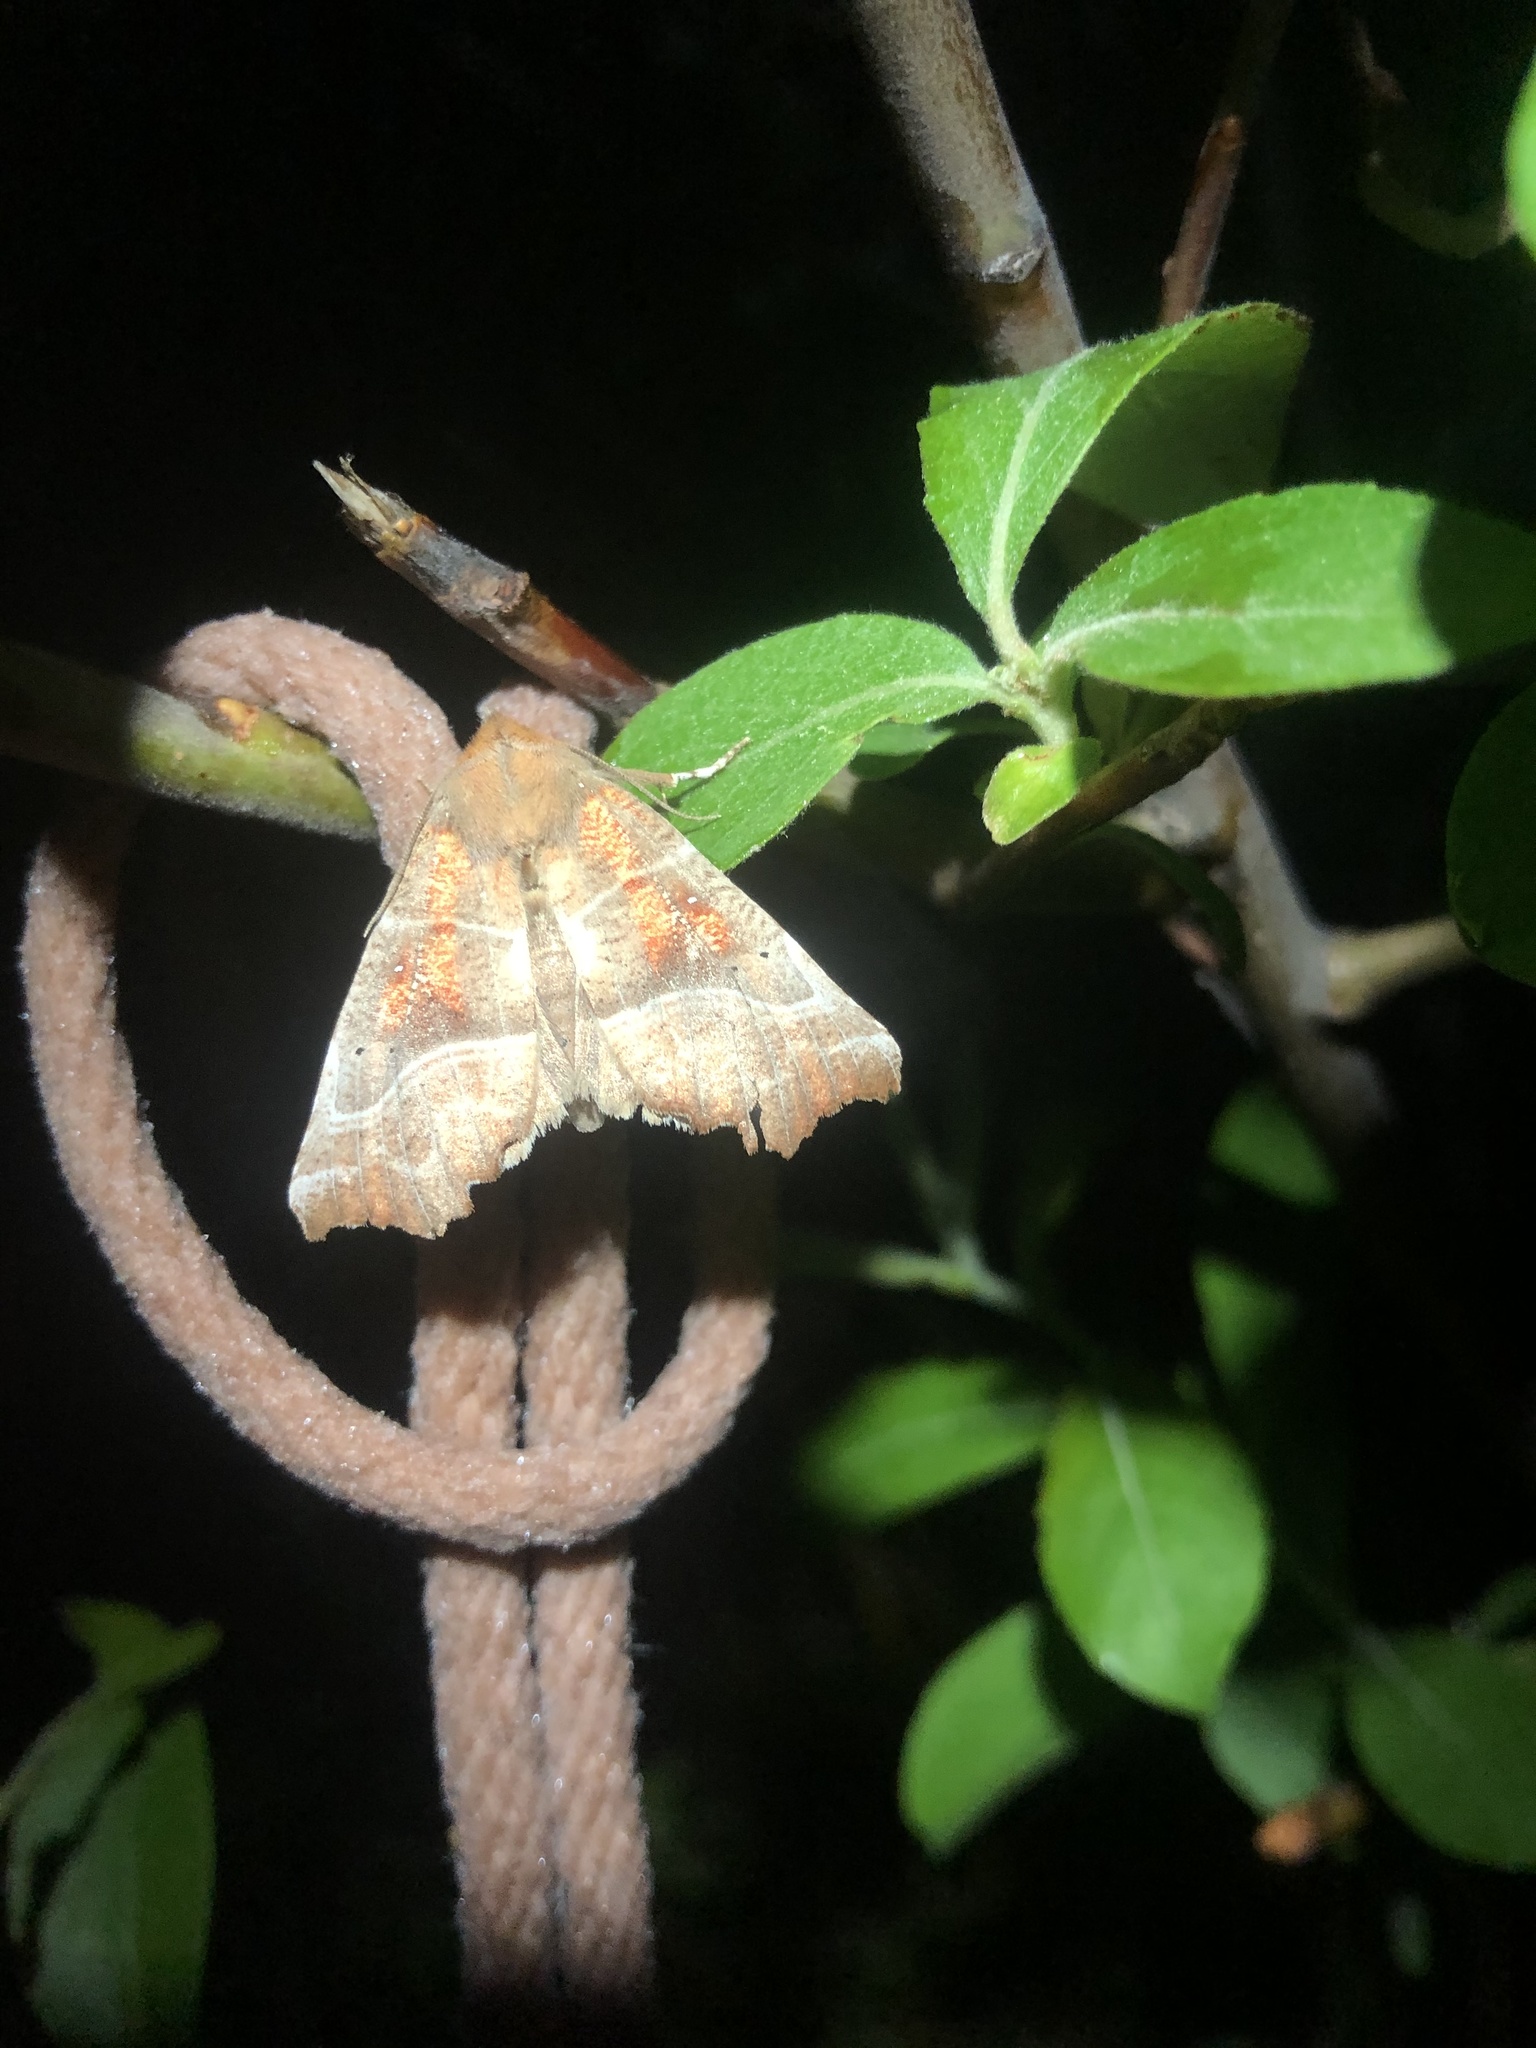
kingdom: Animalia
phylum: Arthropoda
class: Insecta
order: Lepidoptera
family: Erebidae
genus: Scoliopteryx
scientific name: Scoliopteryx libatrix
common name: Herald
